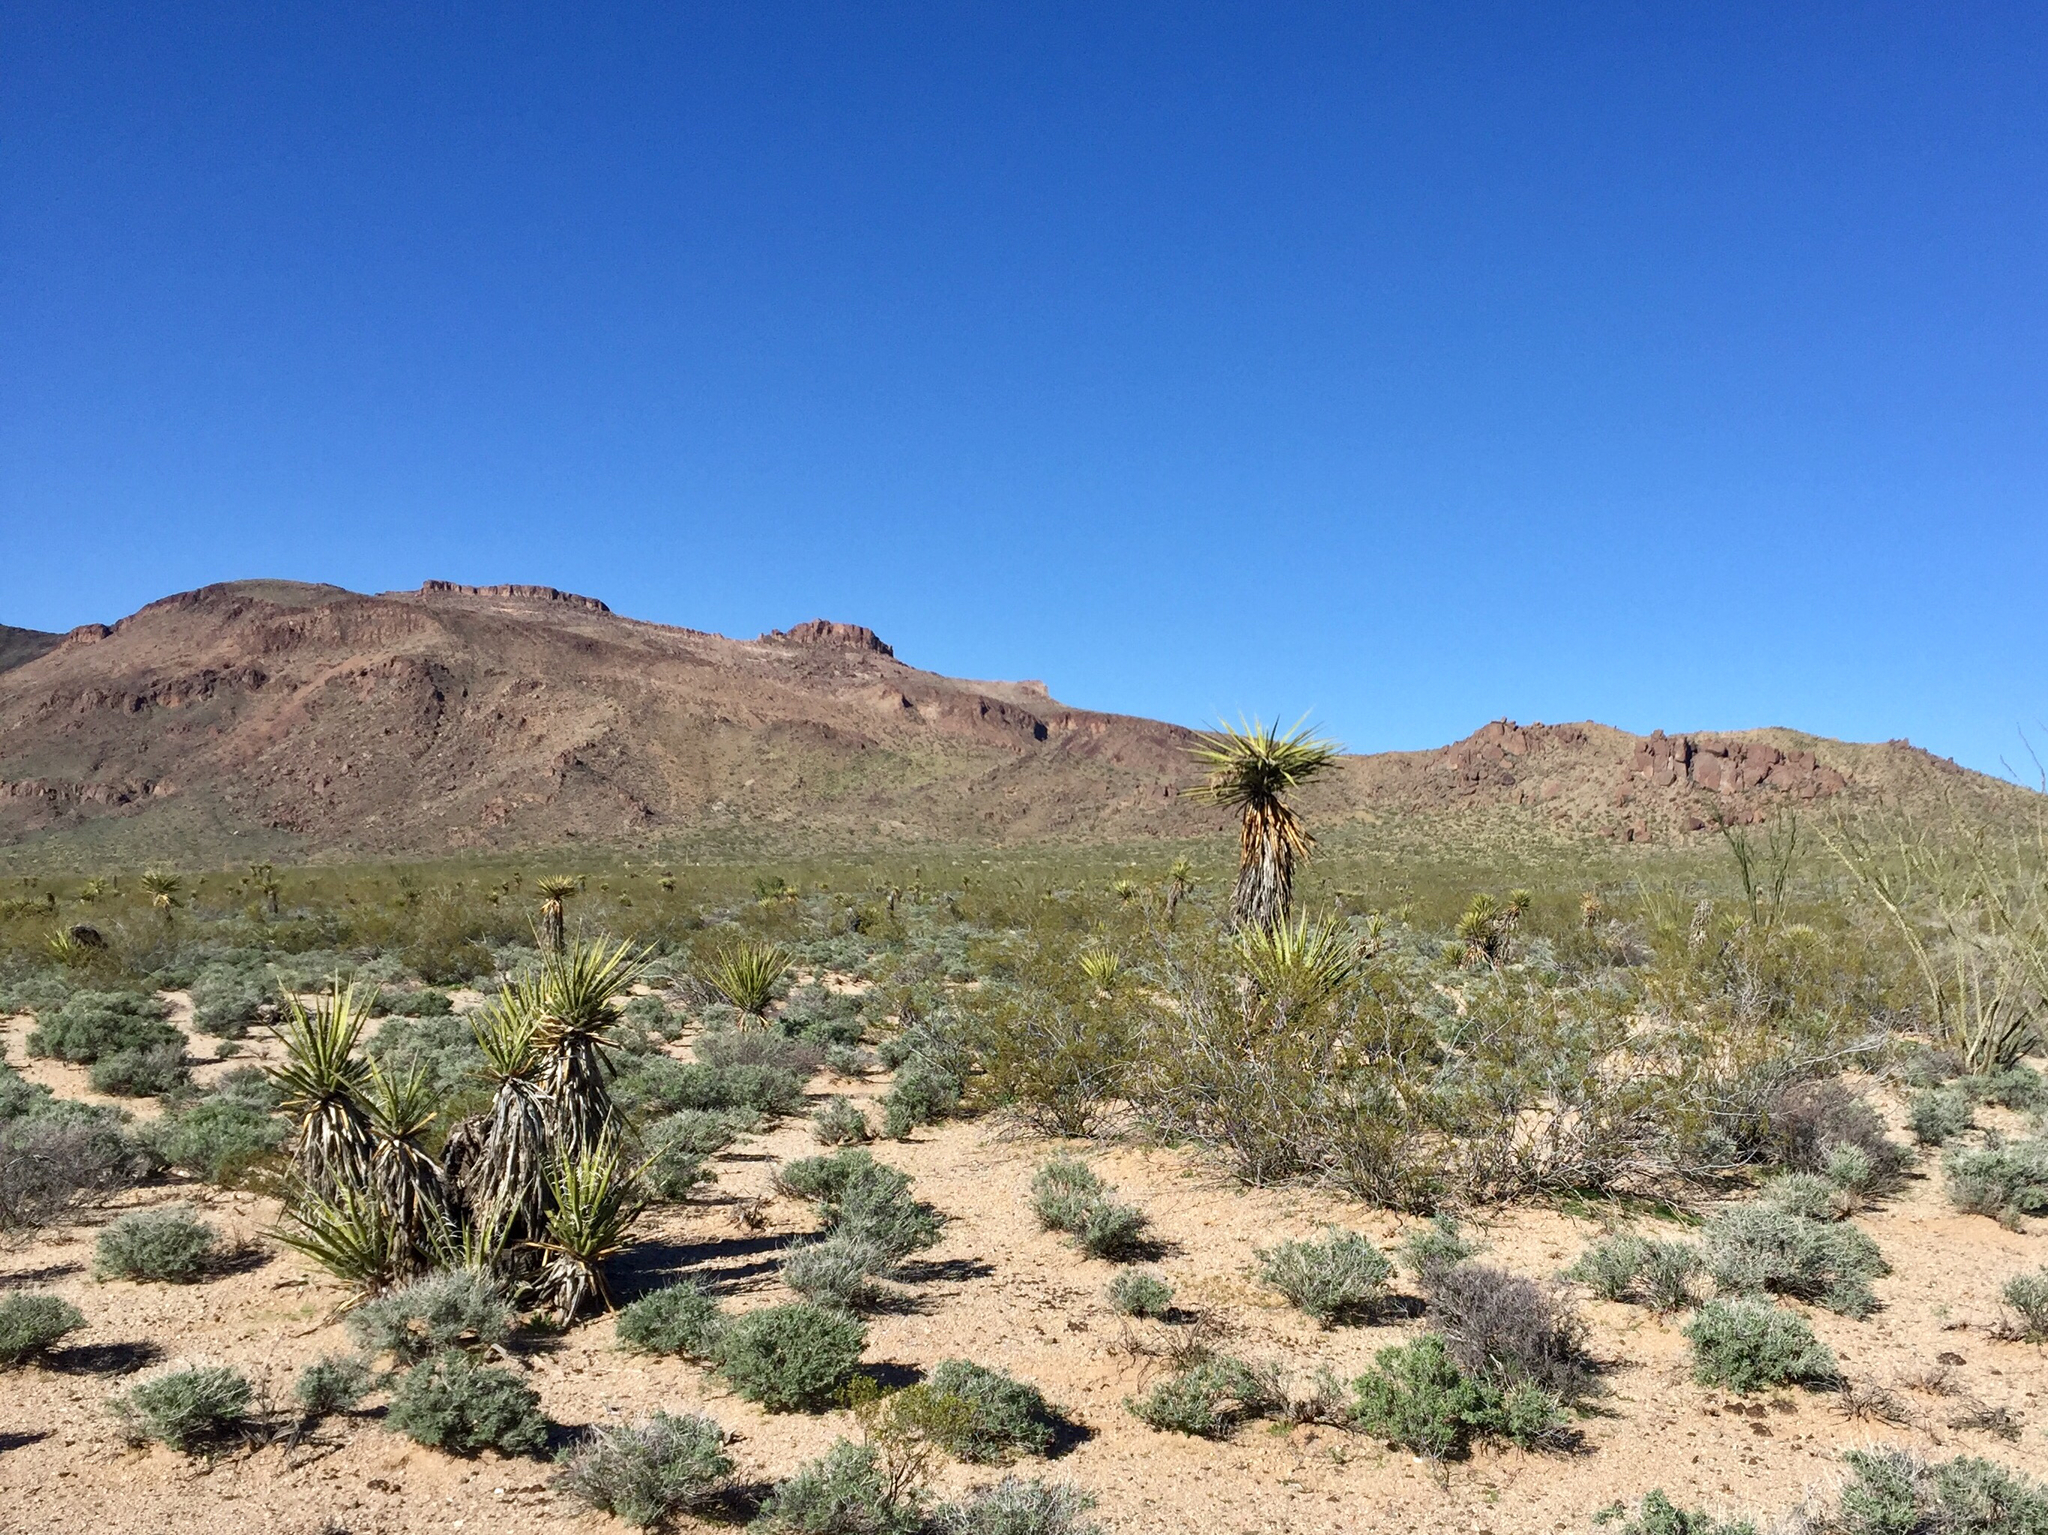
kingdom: Plantae
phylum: Tracheophyta
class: Liliopsida
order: Asparagales
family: Asparagaceae
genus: Yucca
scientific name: Yucca schidigera
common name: Mojave yucca
